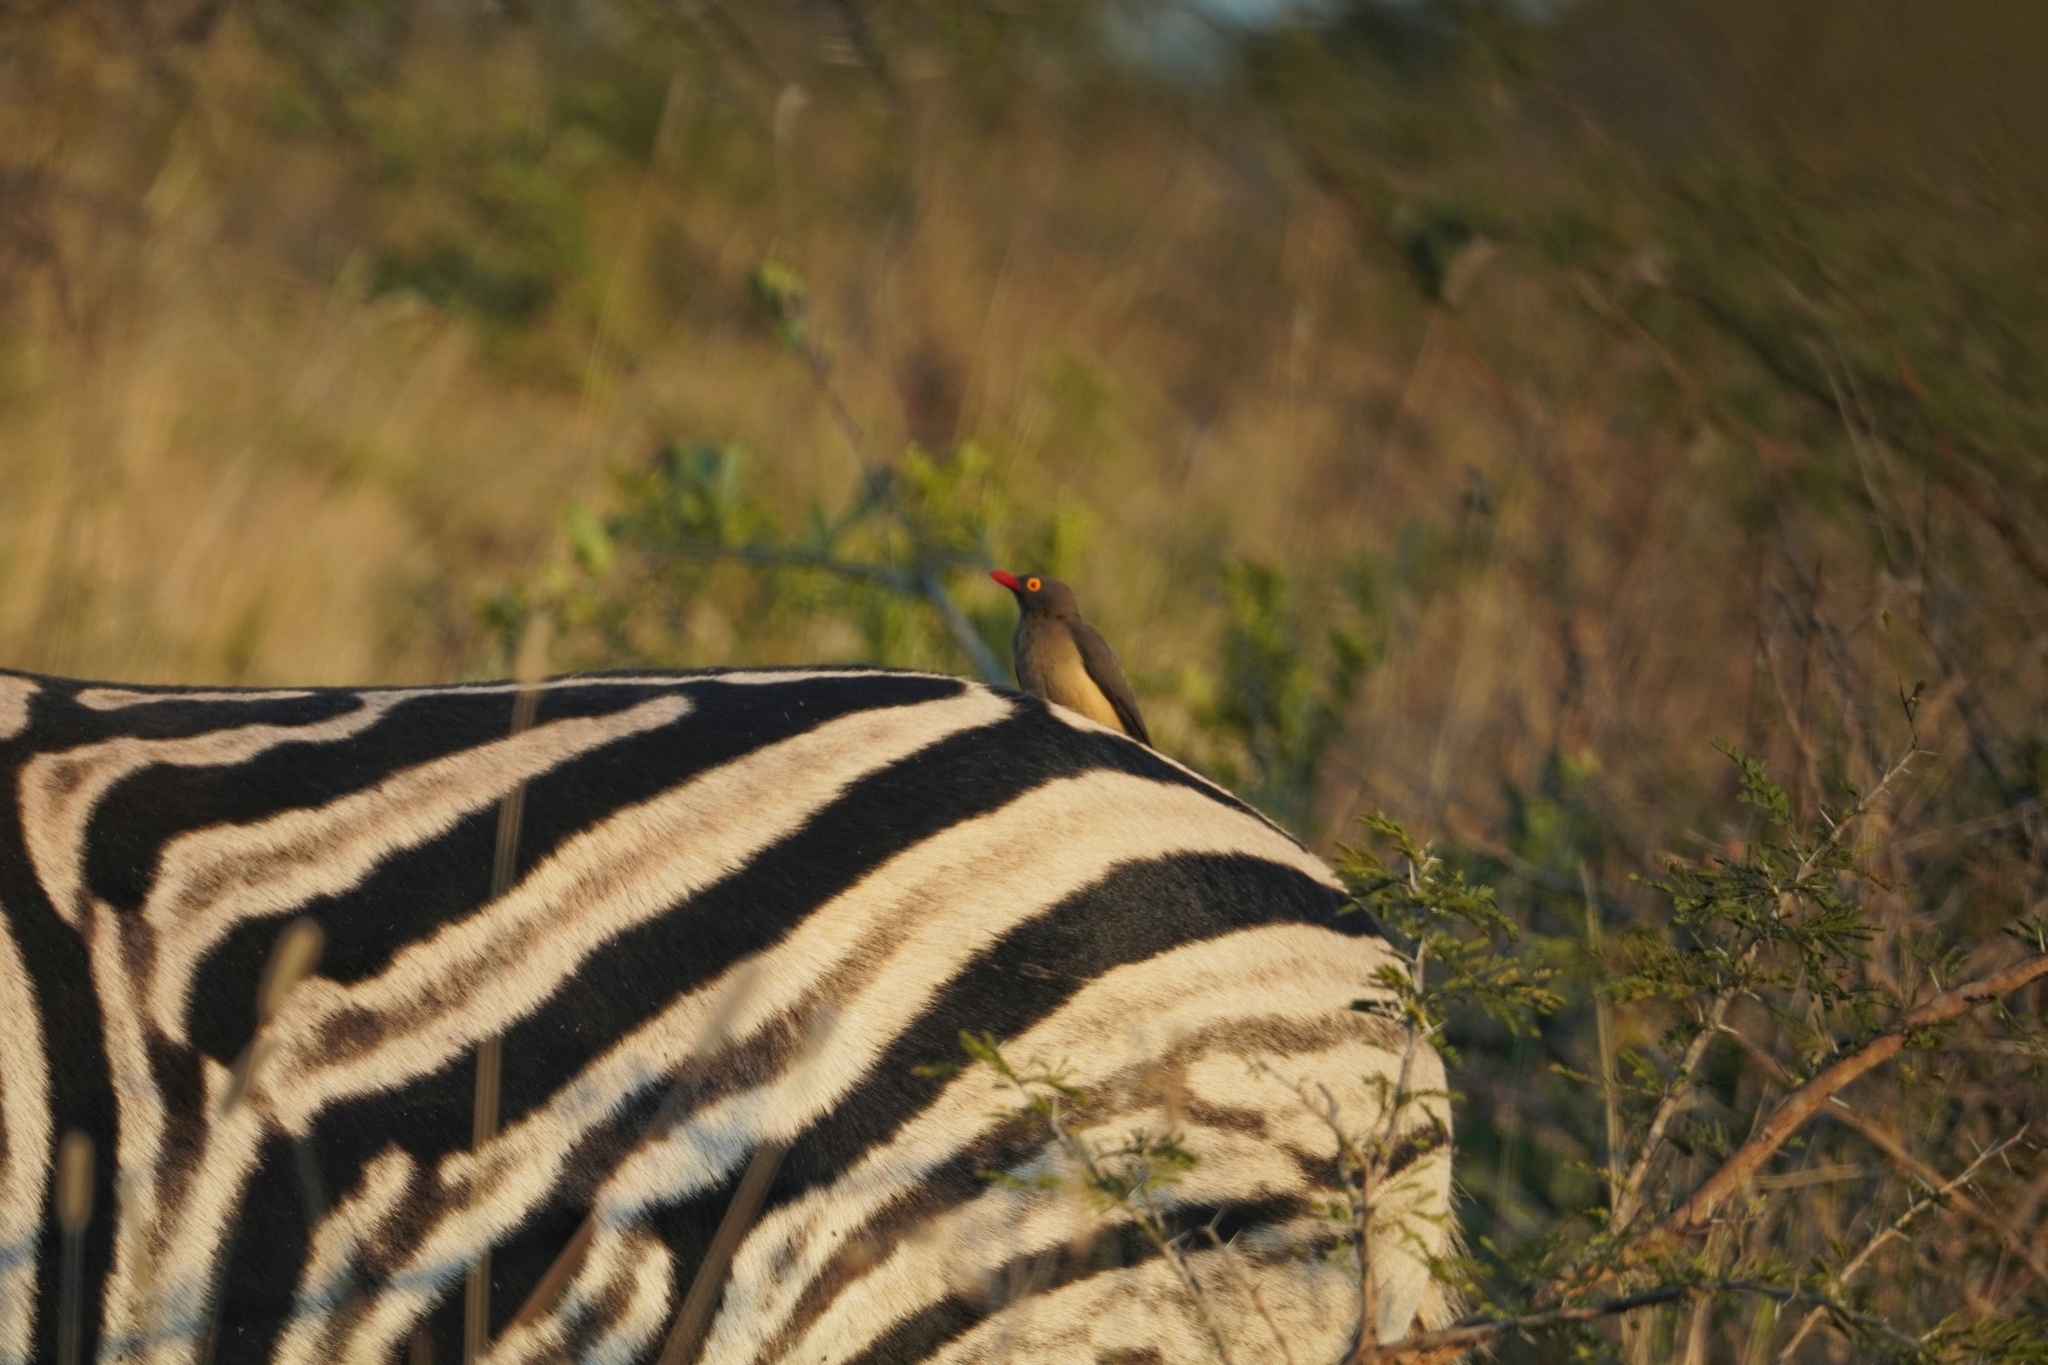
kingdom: Animalia
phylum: Chordata
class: Aves
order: Passeriformes
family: Buphagidae
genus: Buphagus
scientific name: Buphagus erythrorhynchus
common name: Red-billed oxpecker
